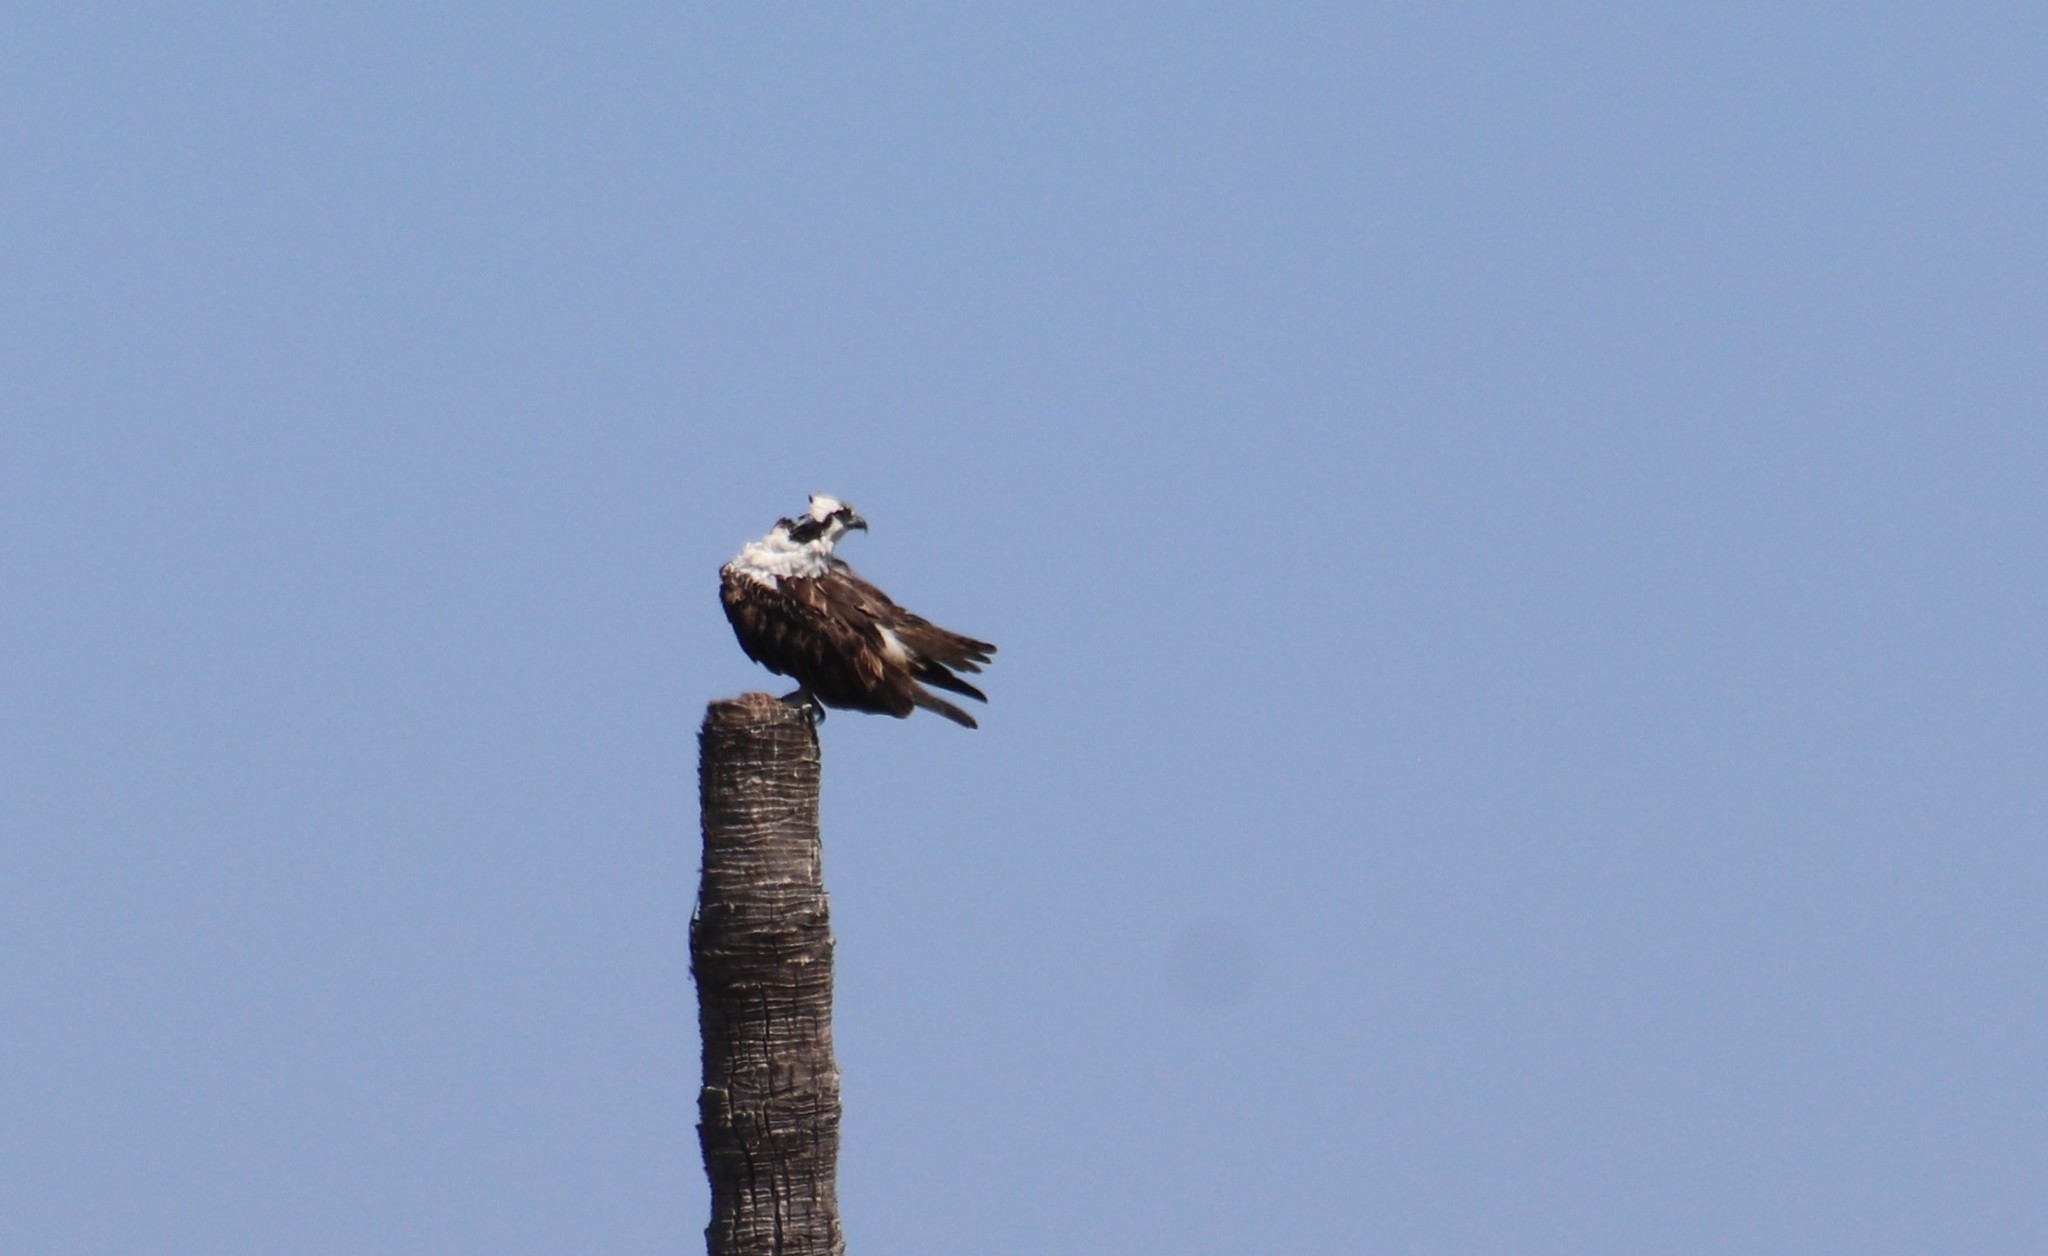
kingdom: Animalia
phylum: Chordata
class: Aves
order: Accipitriformes
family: Pandionidae
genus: Pandion
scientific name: Pandion haliaetus
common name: Osprey
